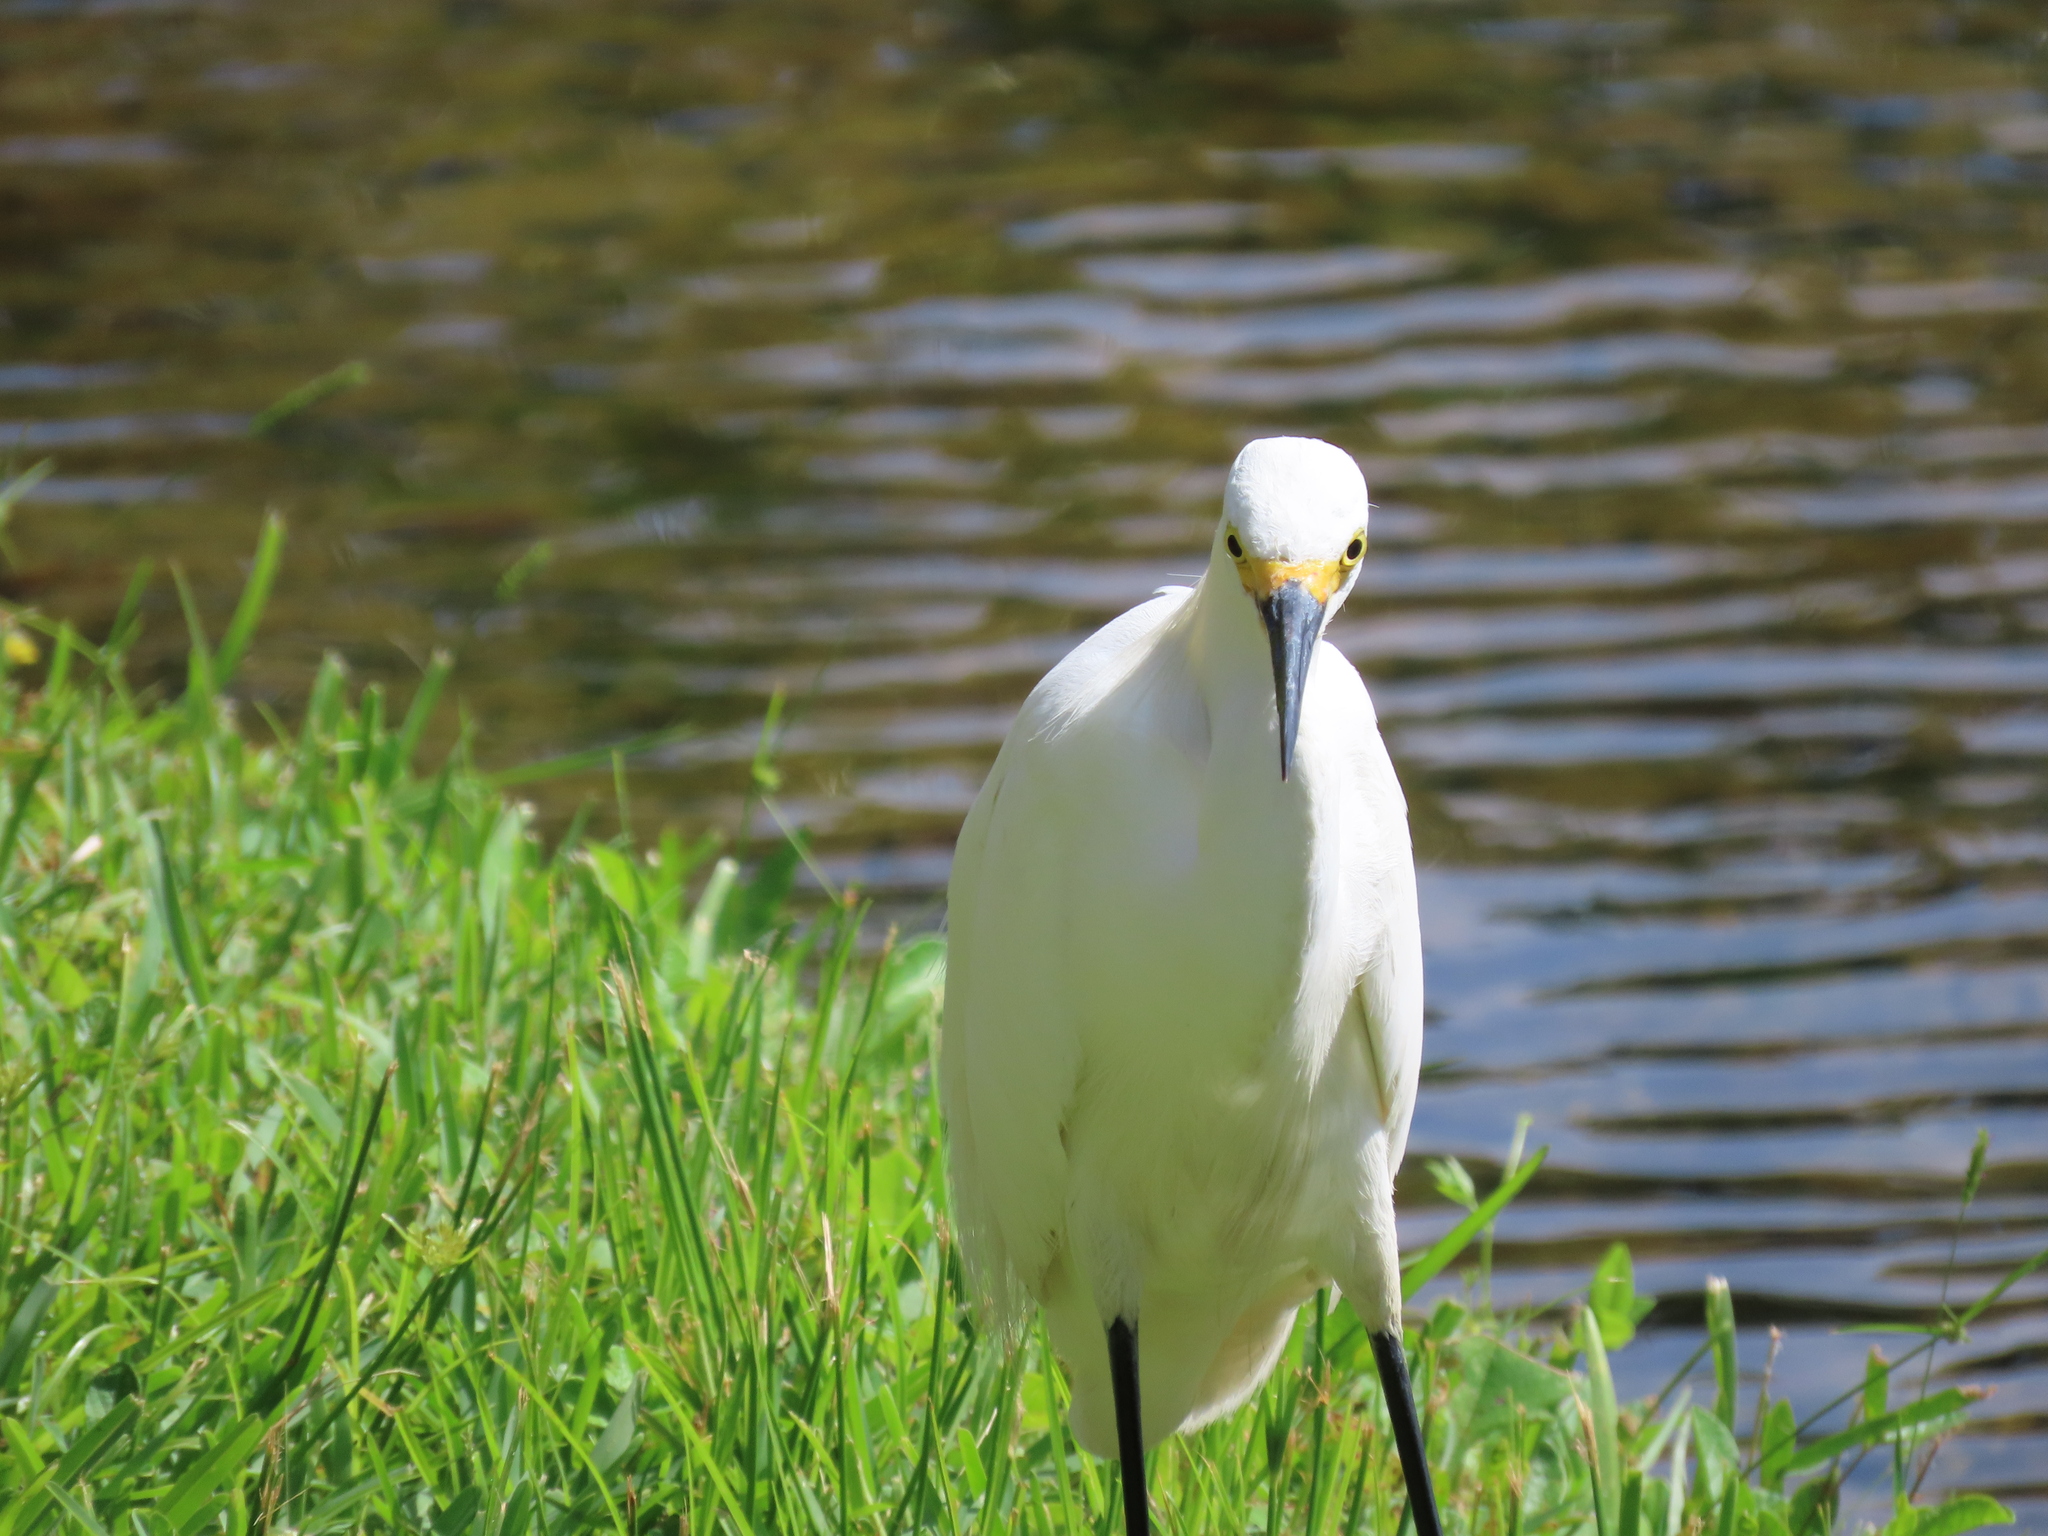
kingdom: Animalia
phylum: Chordata
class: Aves
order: Pelecaniformes
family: Ardeidae
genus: Egretta
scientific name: Egretta thula
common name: Snowy egret
